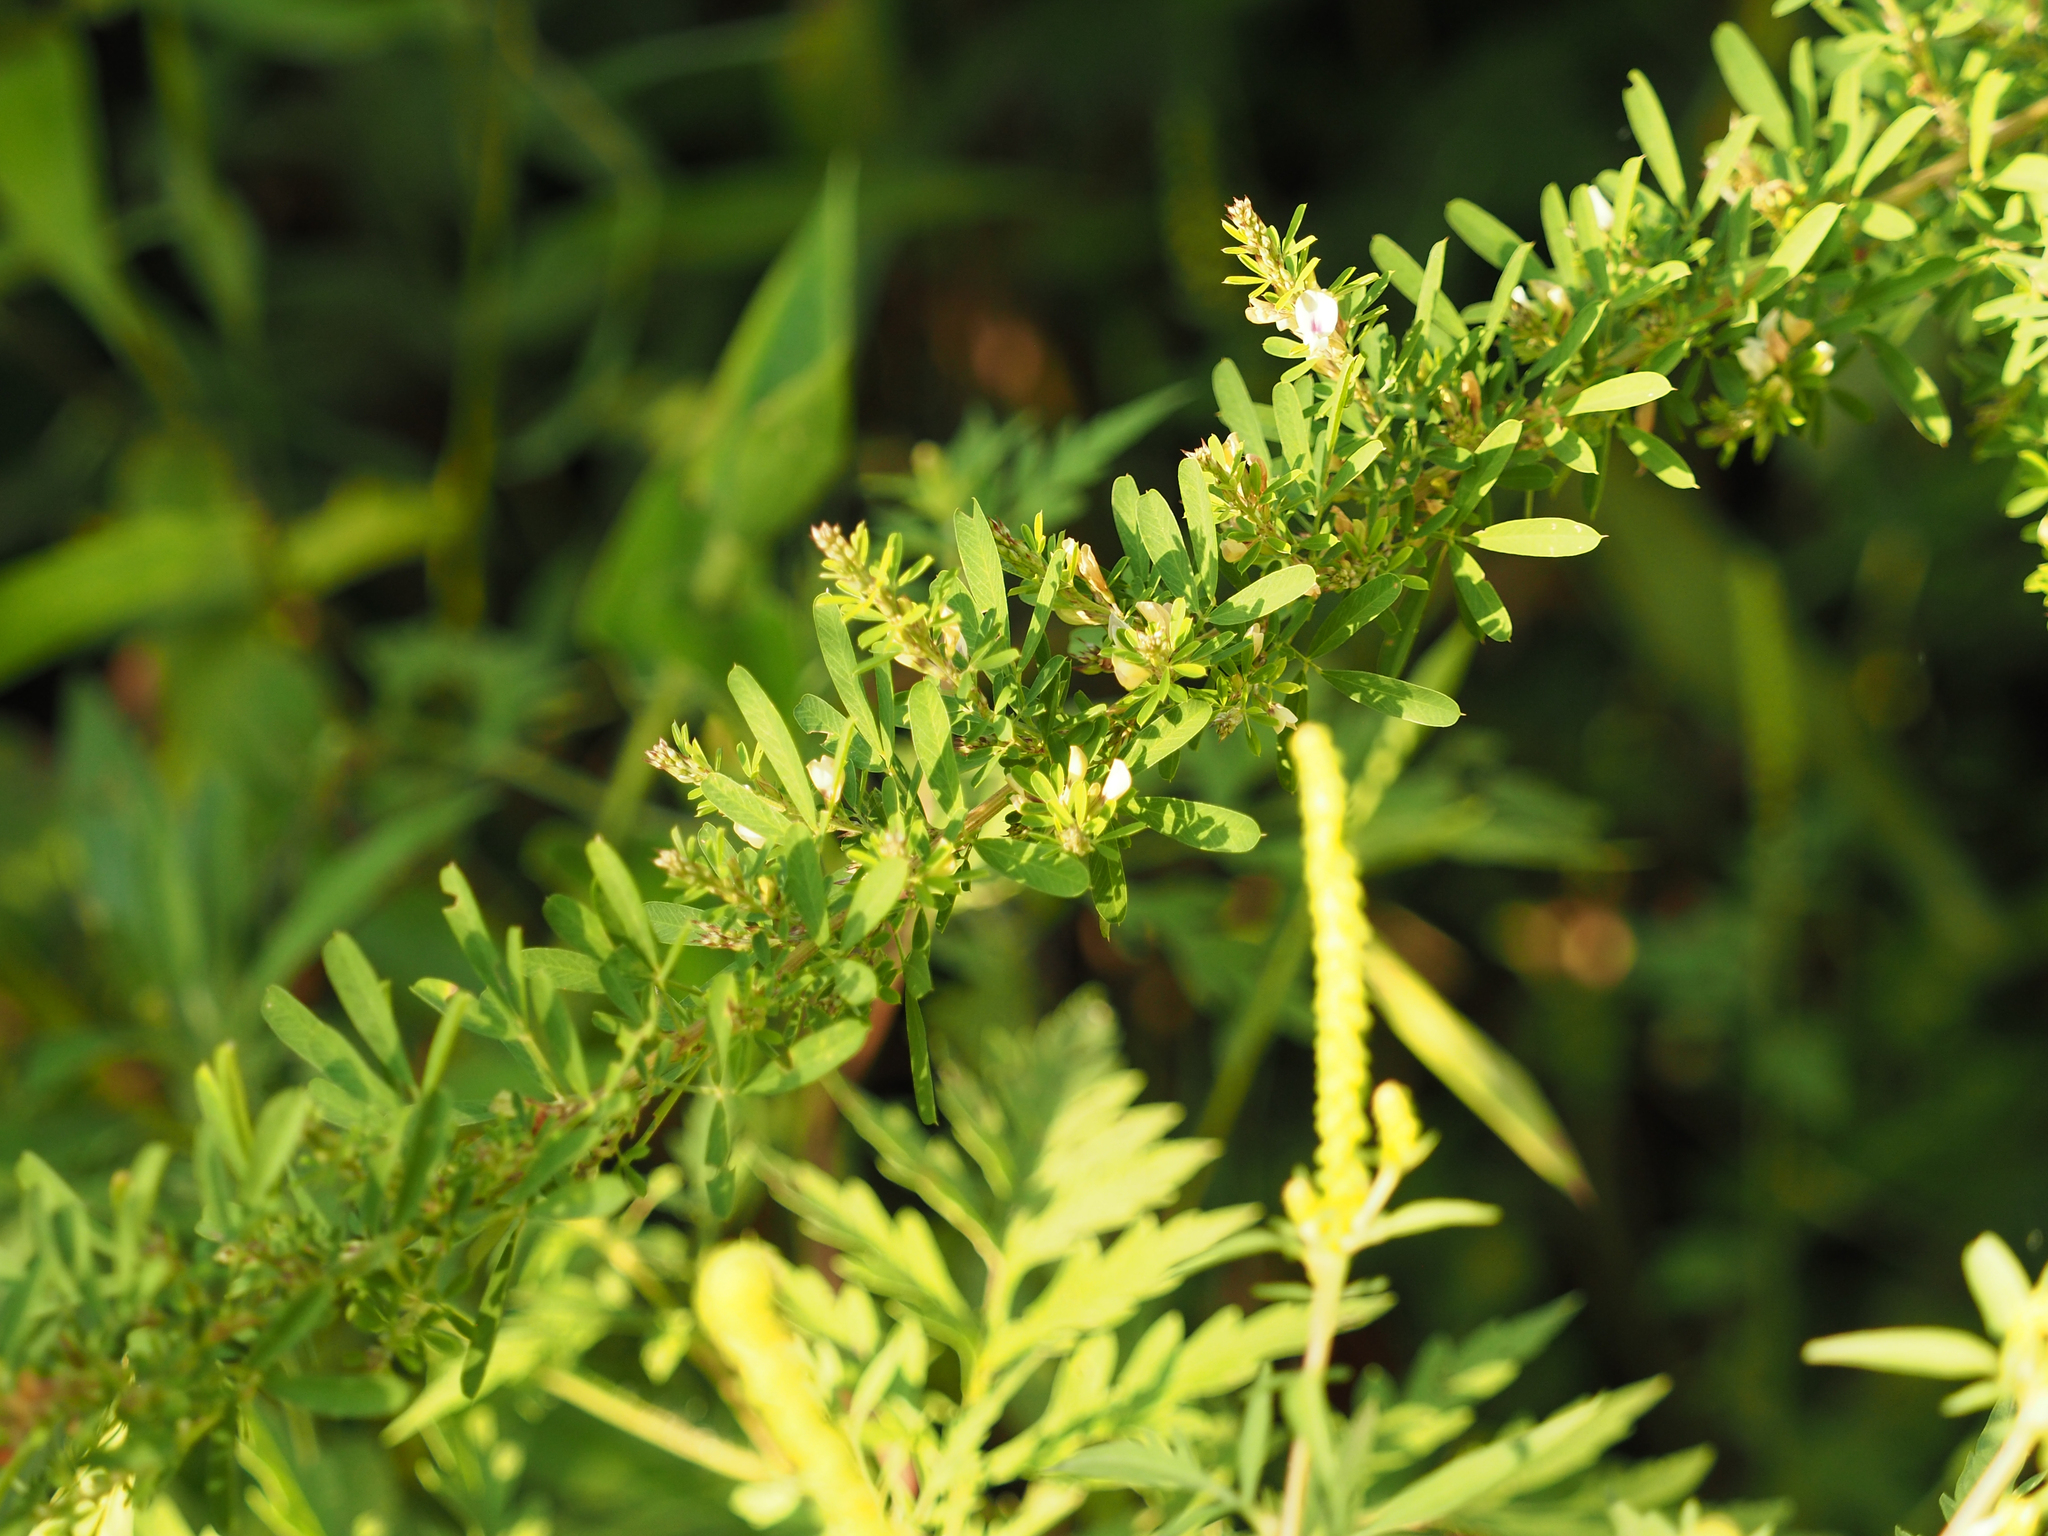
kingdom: Plantae
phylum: Tracheophyta
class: Magnoliopsida
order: Fabales
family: Fabaceae
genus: Lespedeza
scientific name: Lespedeza cuneata
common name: Chinese bush-clover
